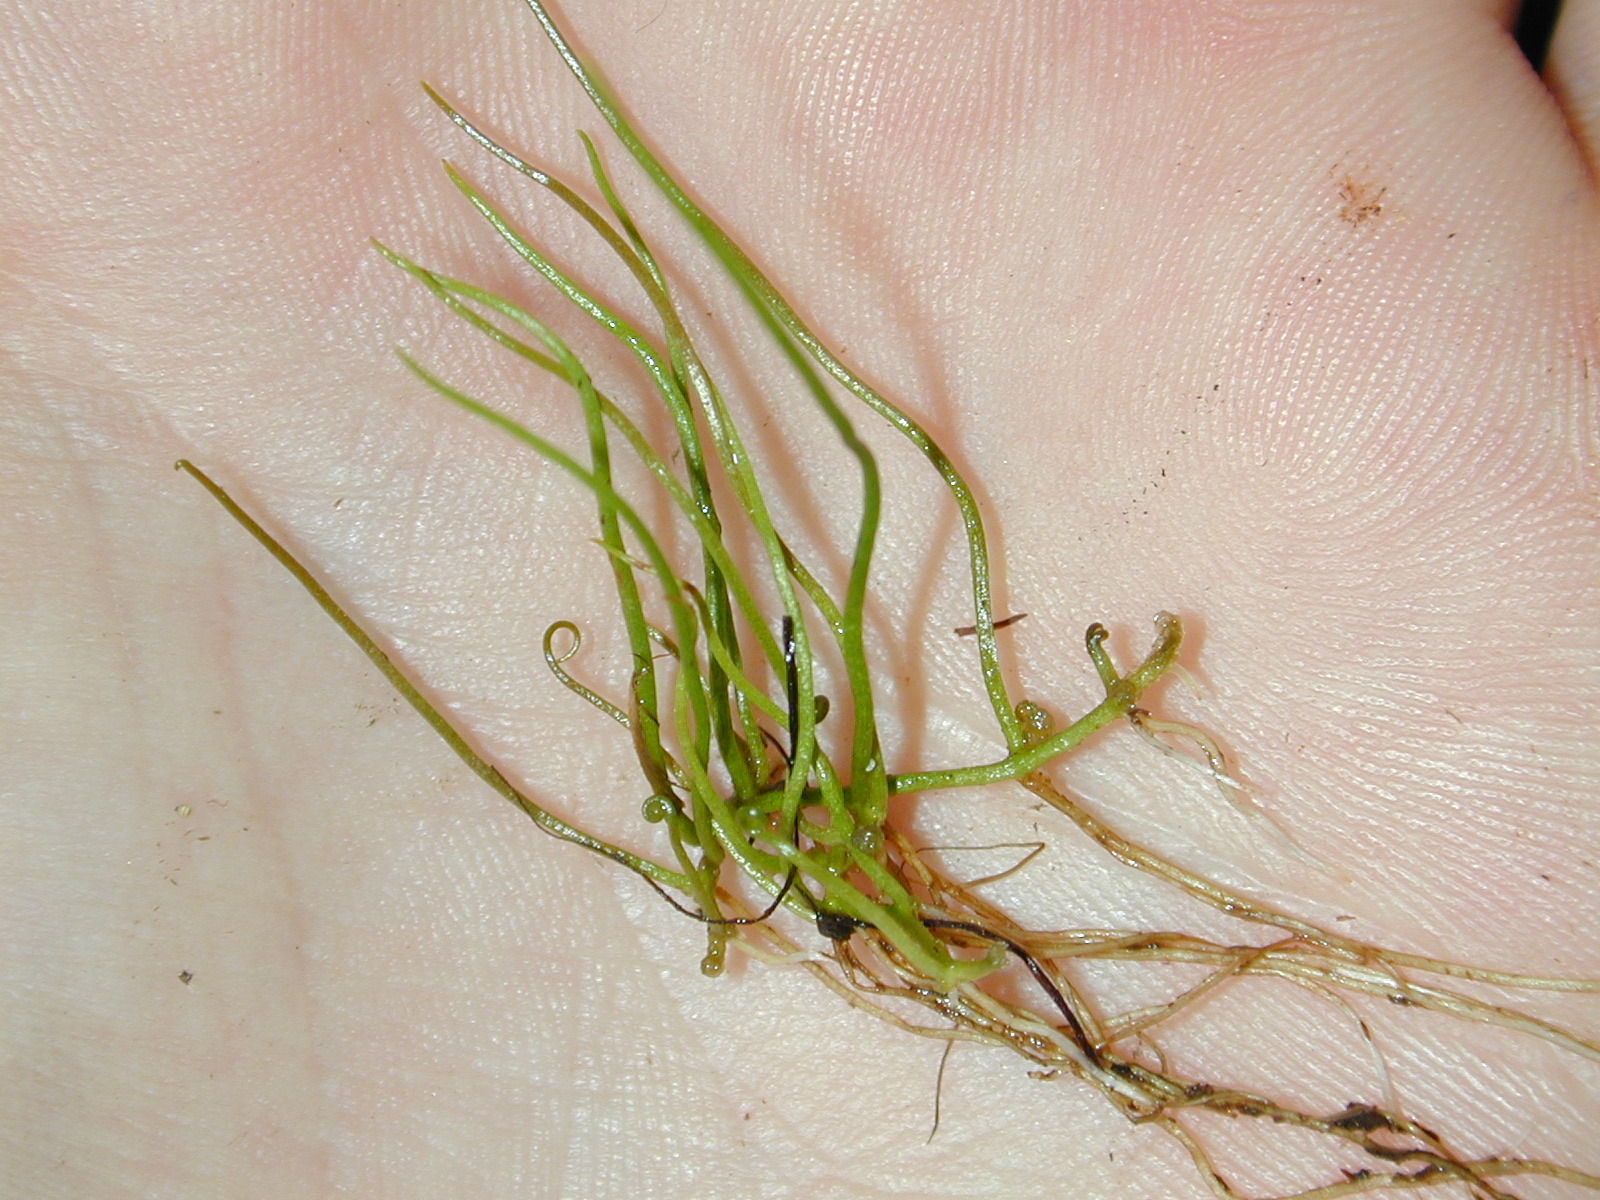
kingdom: Plantae
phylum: Tracheophyta
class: Polypodiopsida
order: Salviniales
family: Marsileaceae
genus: Pilularia
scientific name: Pilularia globulifera
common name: Pillwort
